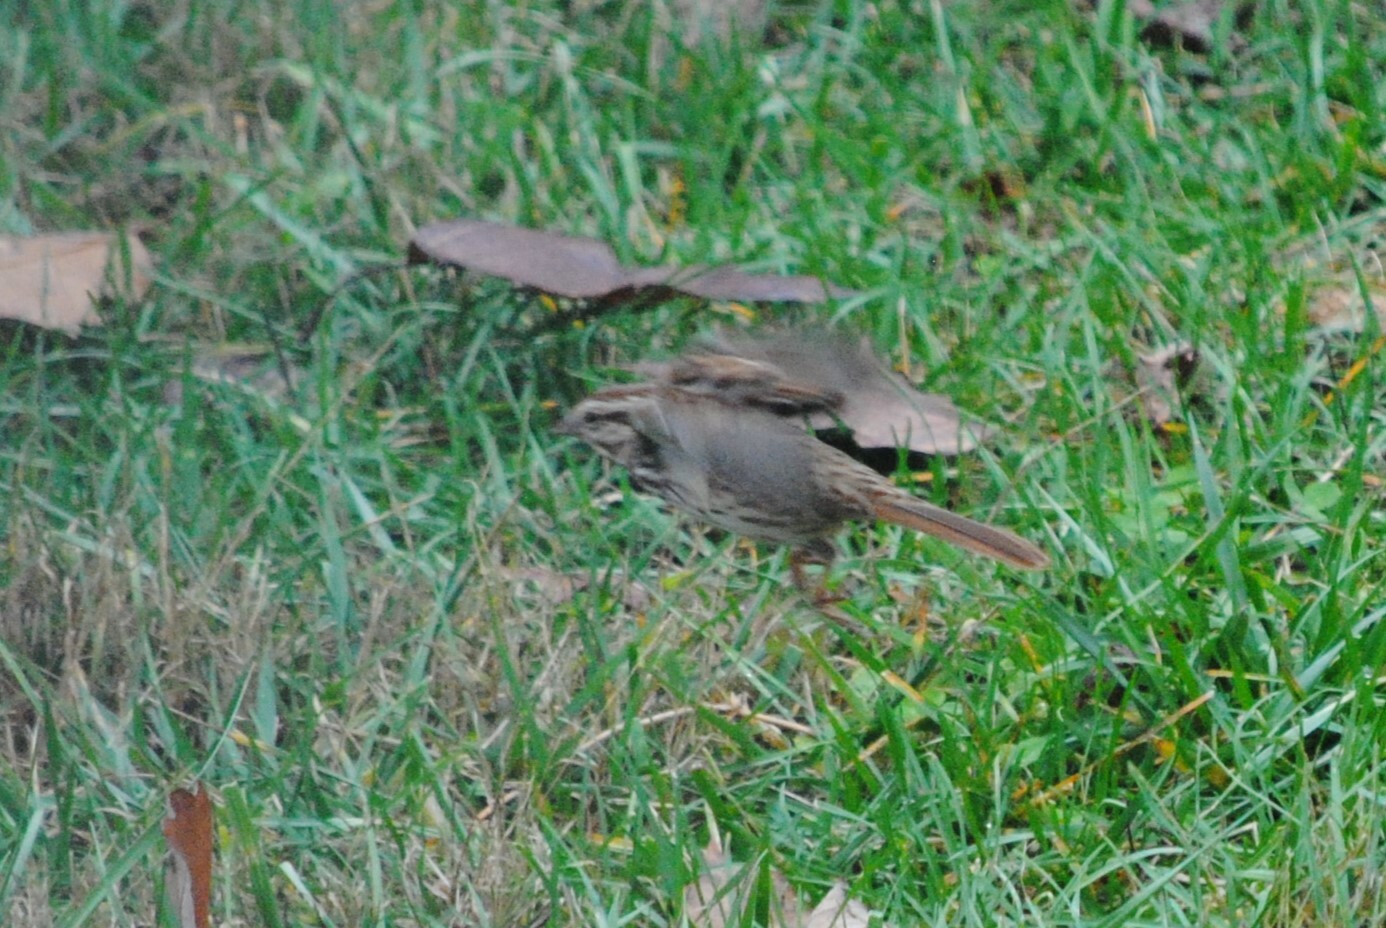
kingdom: Animalia
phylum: Chordata
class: Aves
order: Passeriformes
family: Passerellidae
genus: Melospiza
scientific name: Melospiza melodia
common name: Song sparrow
